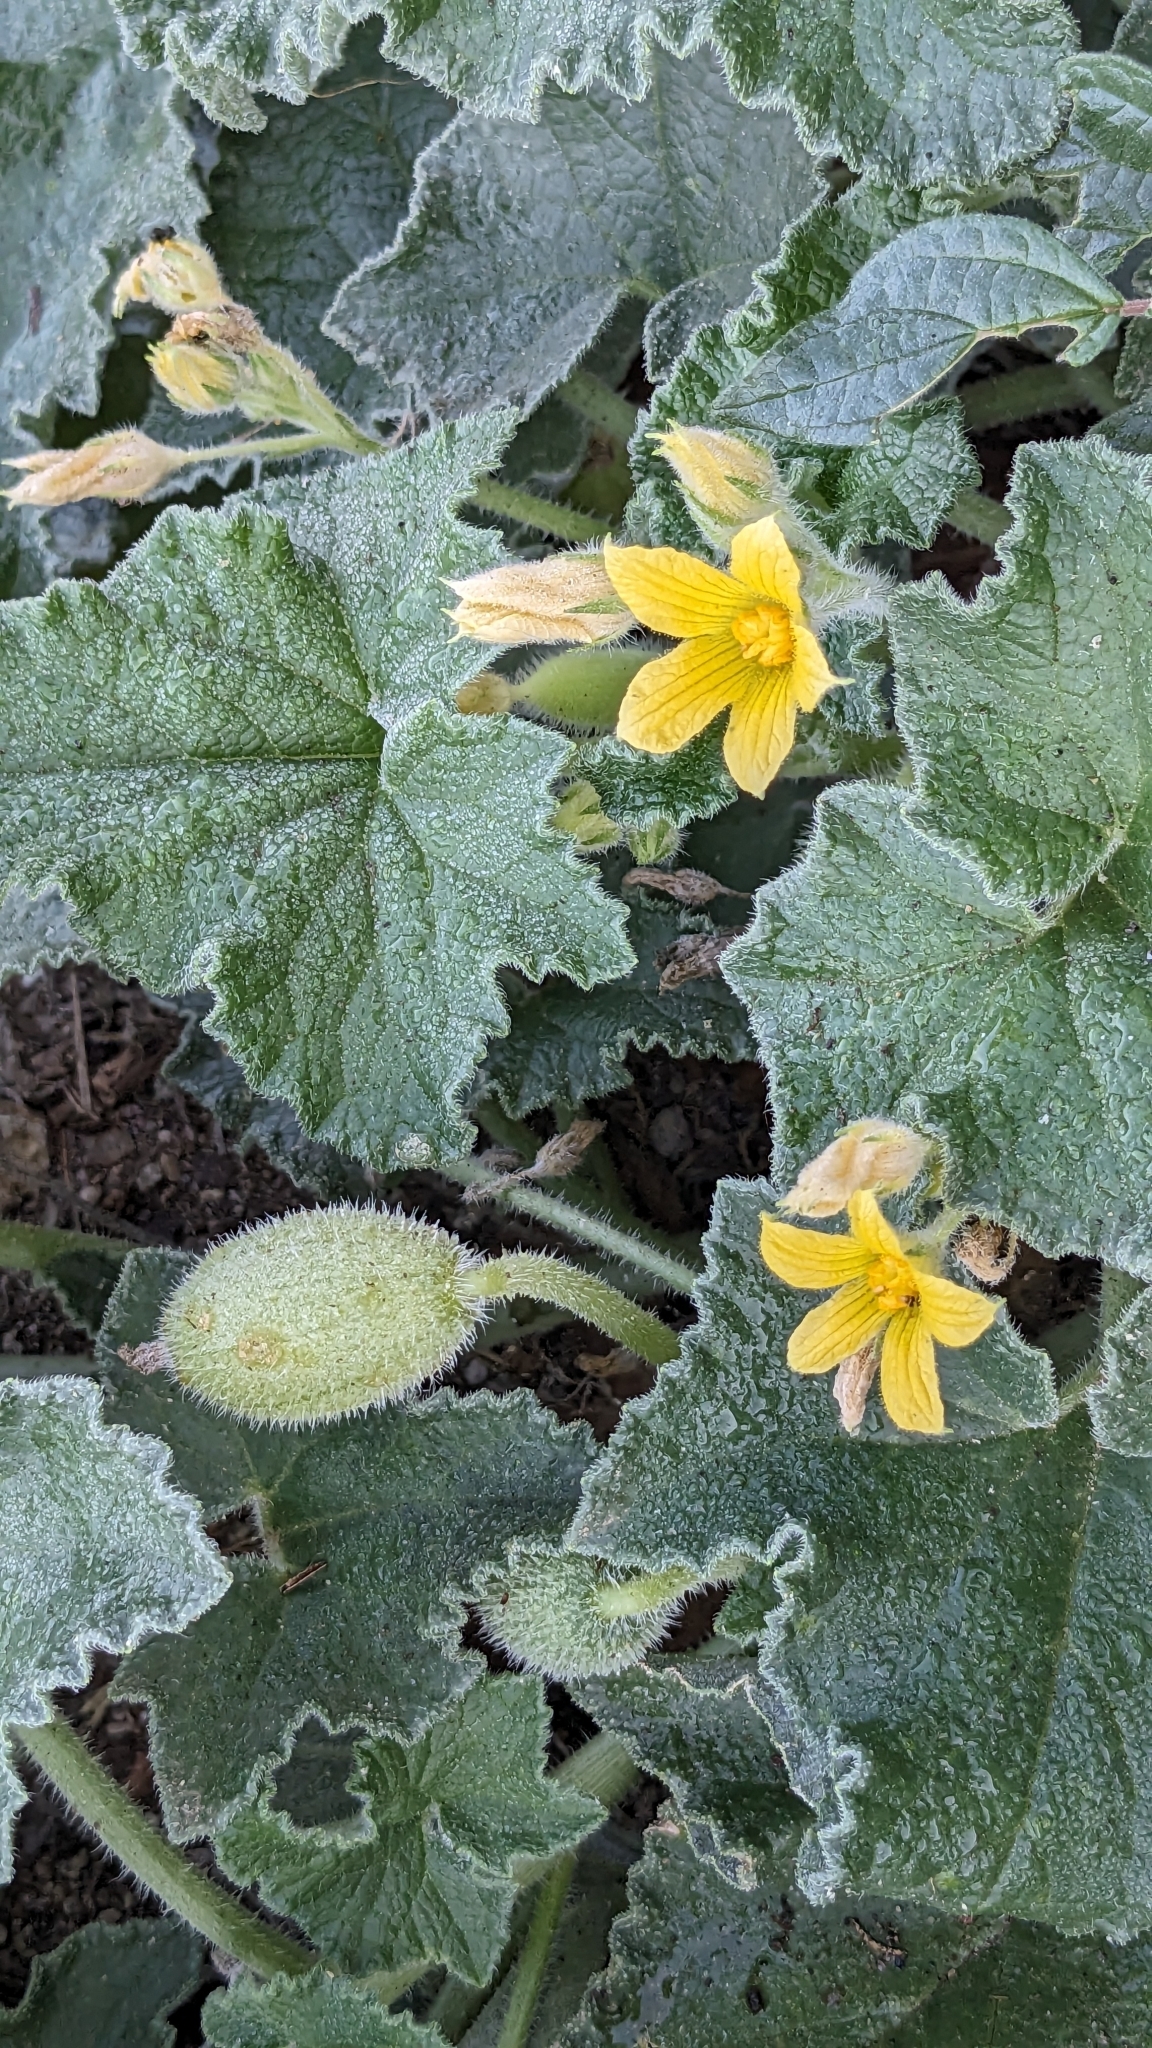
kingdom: Plantae
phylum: Tracheophyta
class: Magnoliopsida
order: Cucurbitales
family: Cucurbitaceae
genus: Ecballium
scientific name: Ecballium elaterium
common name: Squirting cucumber
